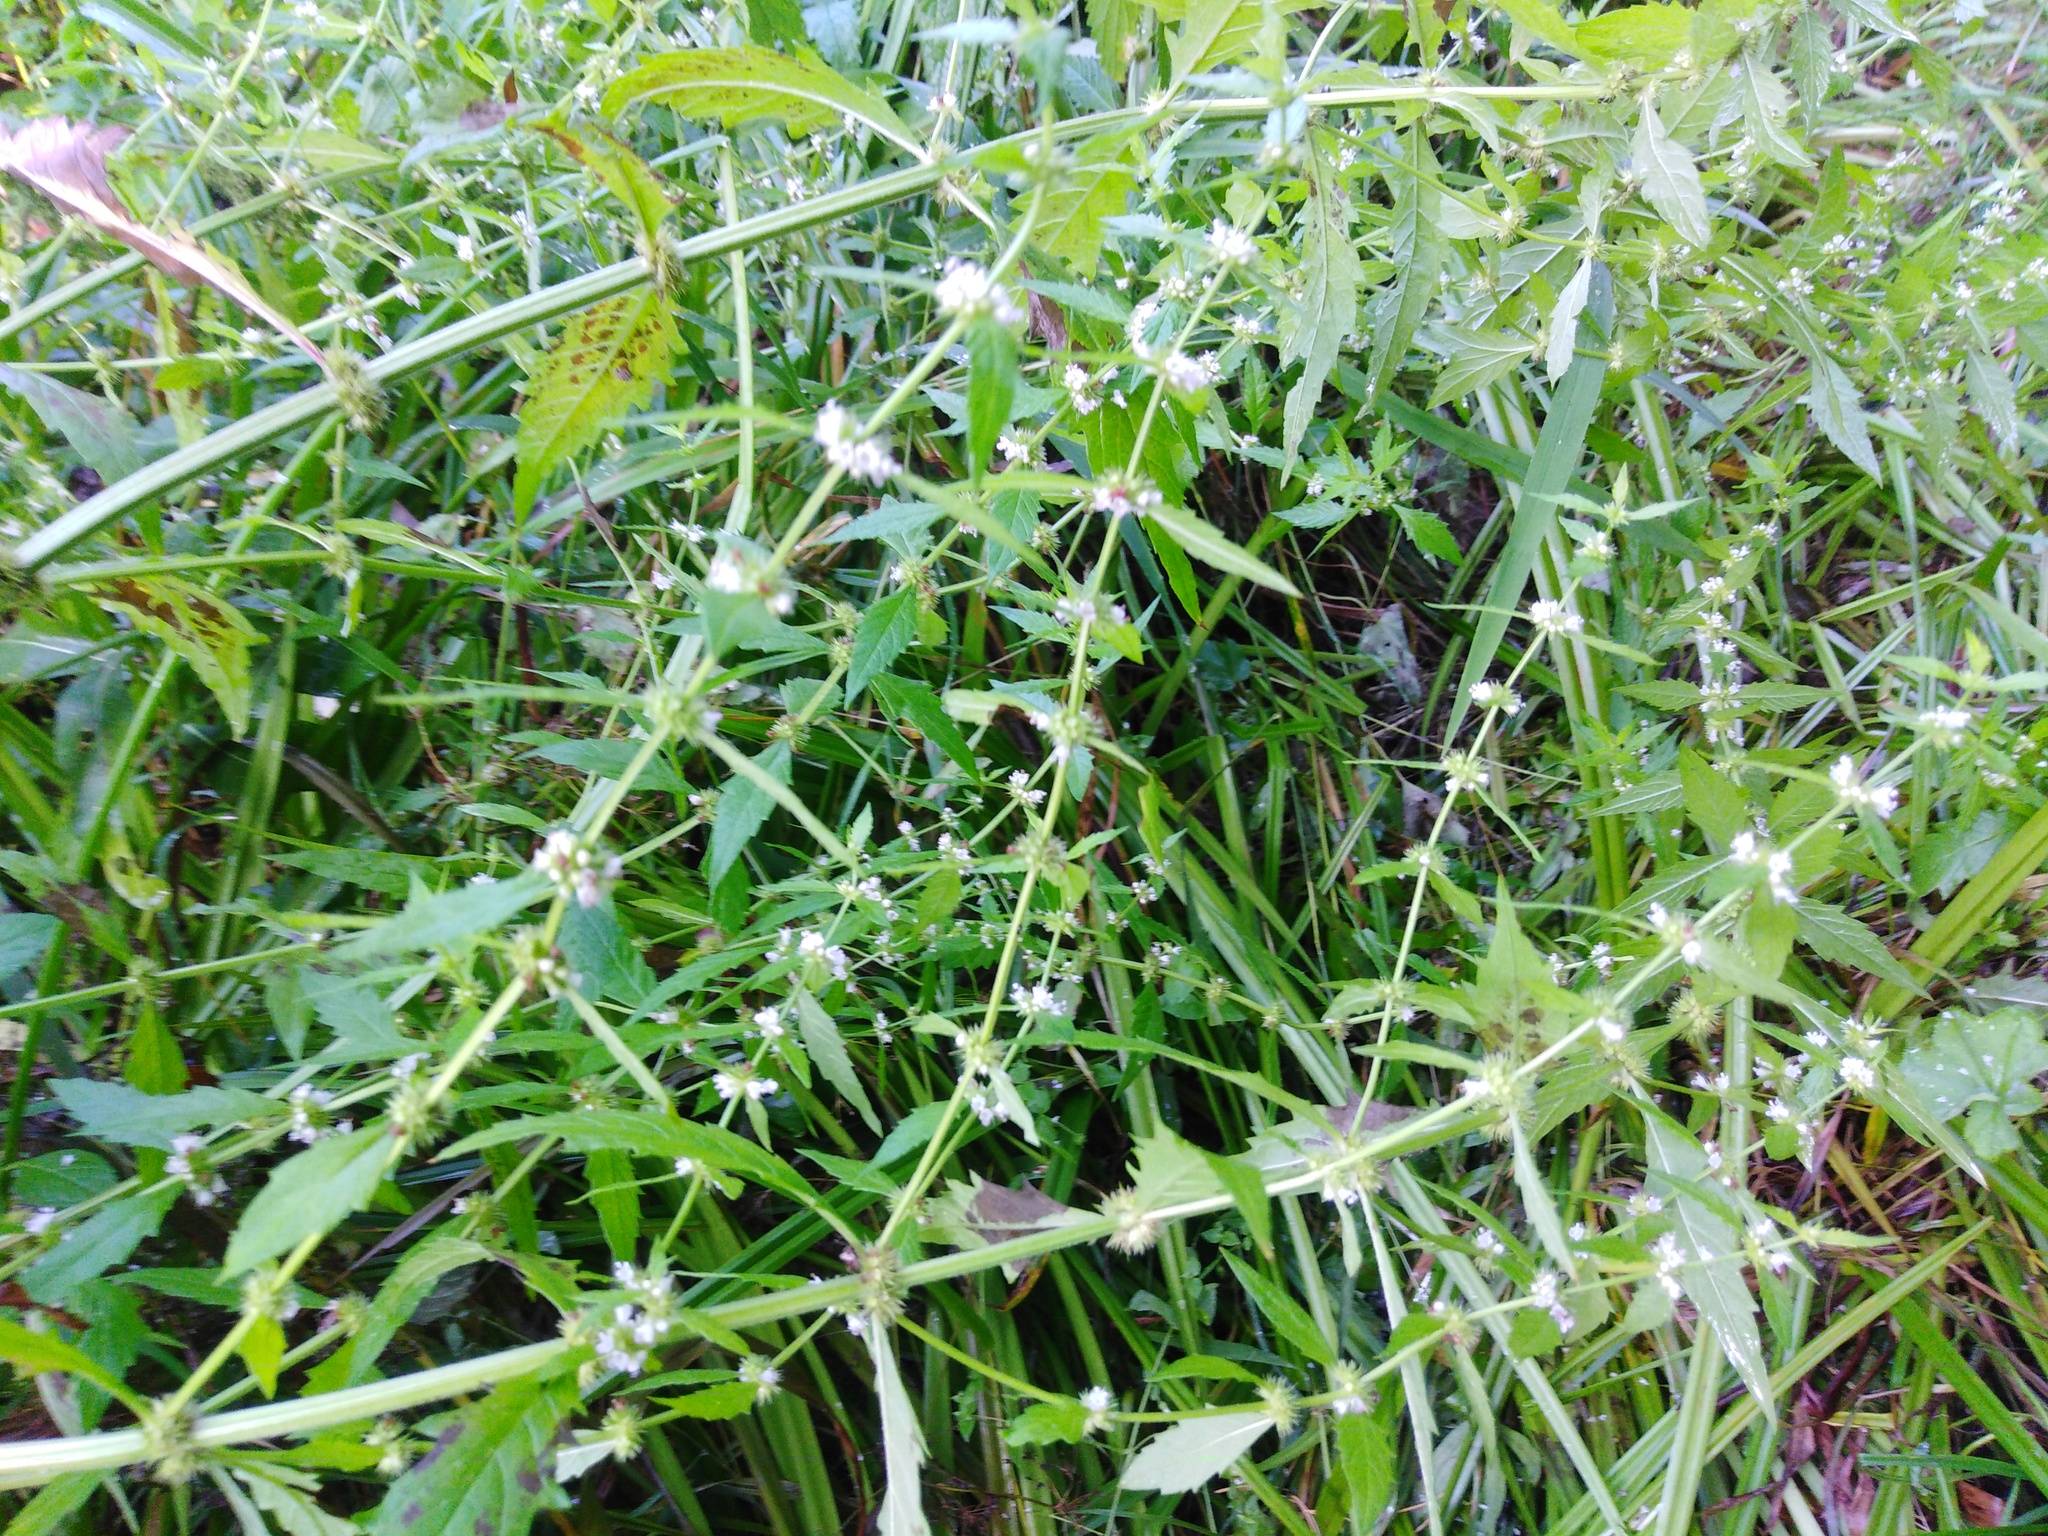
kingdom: Plantae
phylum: Tracheophyta
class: Magnoliopsida
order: Lamiales
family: Lamiaceae
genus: Lycopus
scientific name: Lycopus europaeus
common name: European bugleweed
